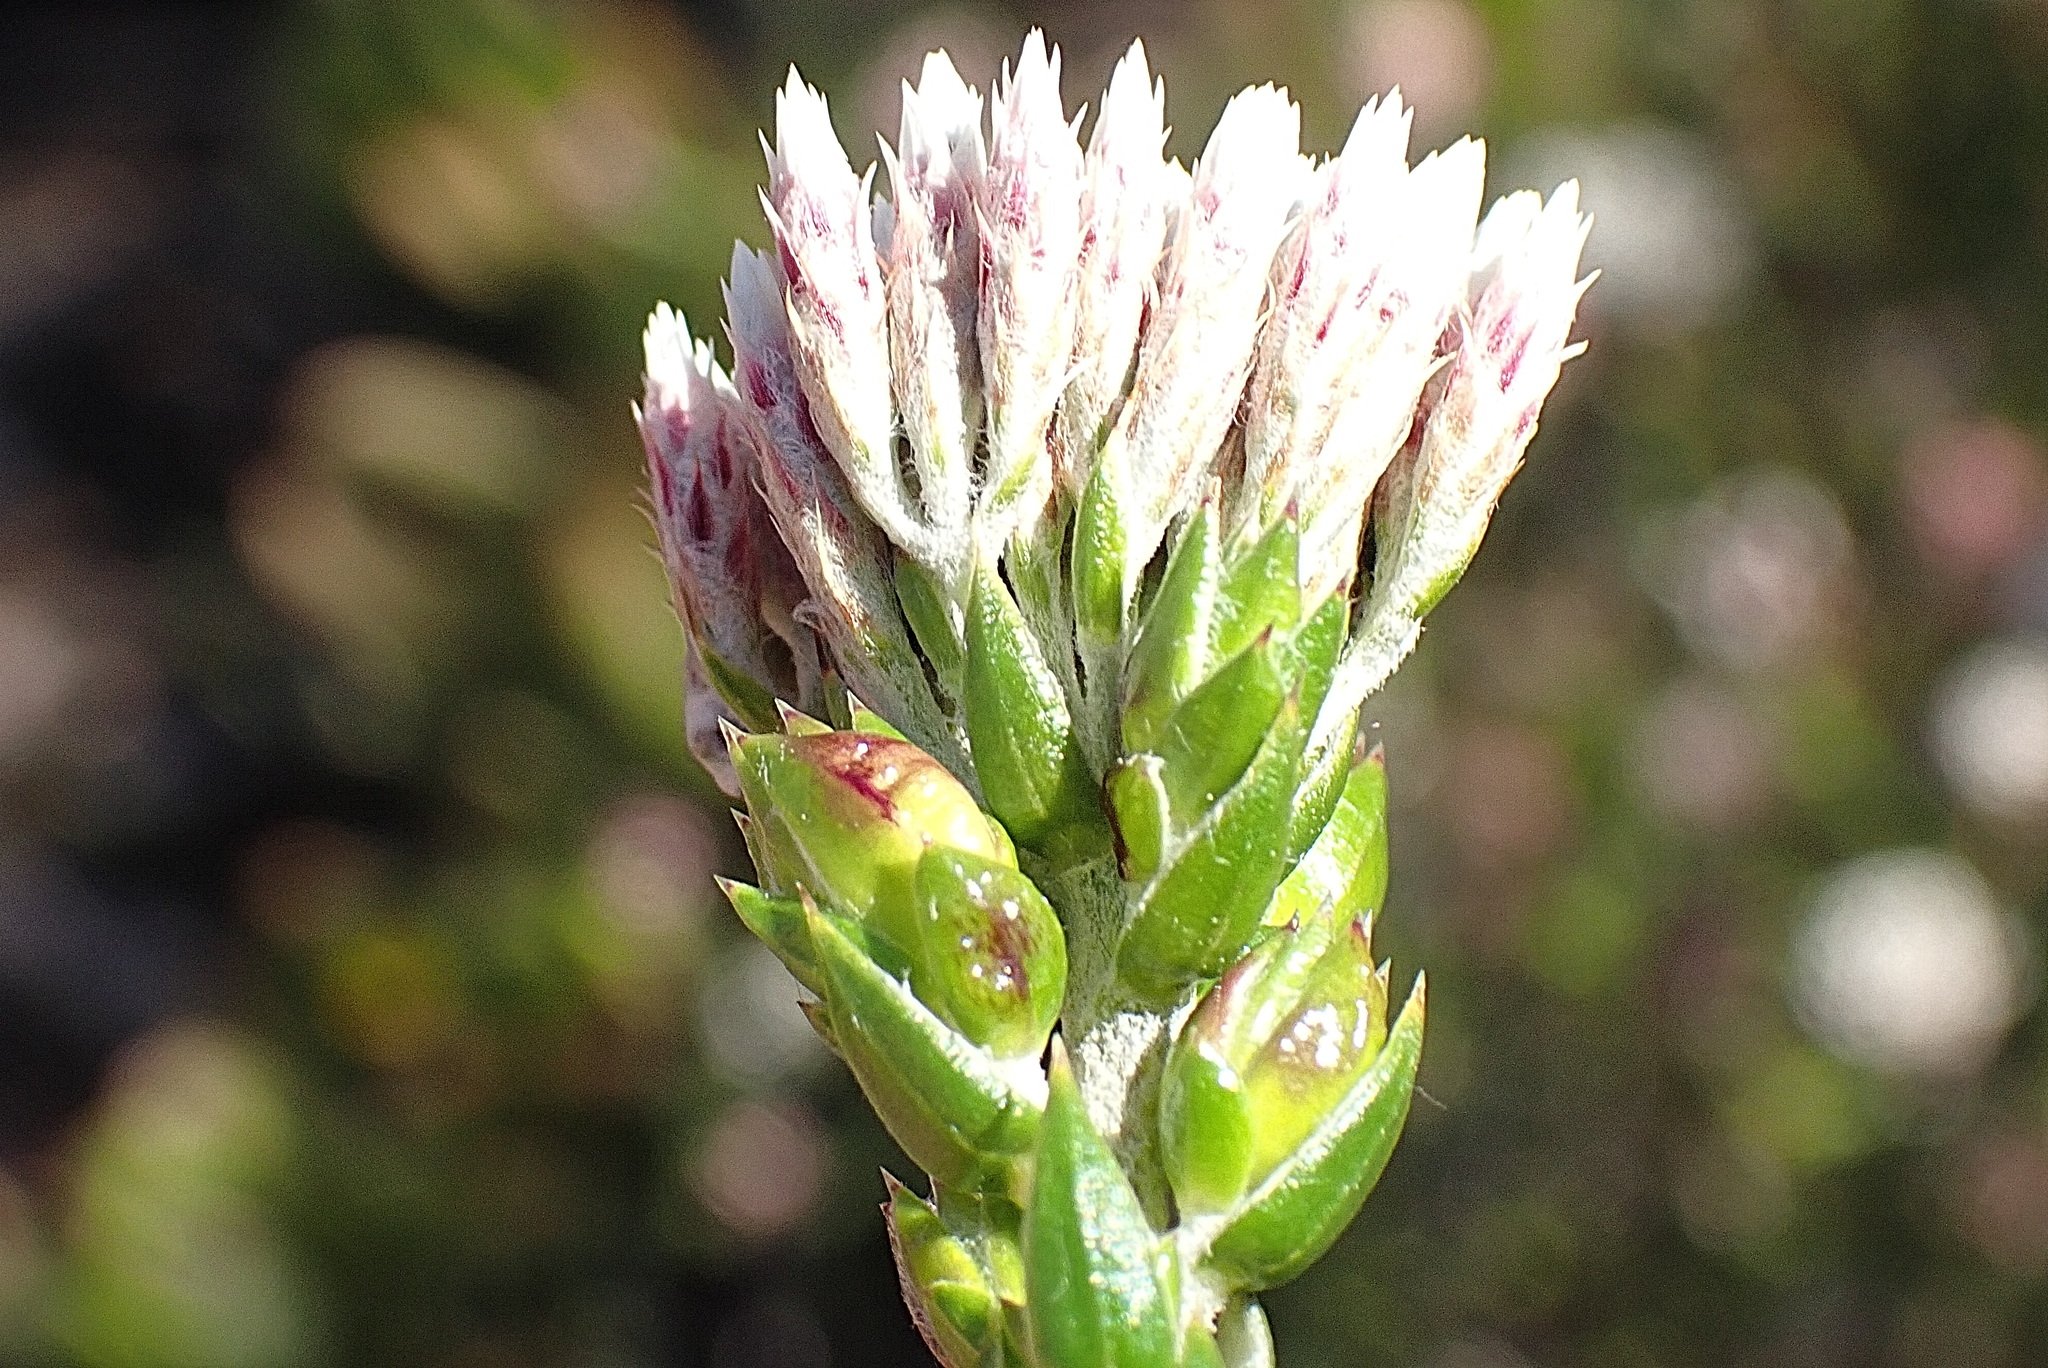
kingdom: Plantae
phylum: Tracheophyta
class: Magnoliopsida
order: Asterales
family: Asteraceae
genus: Metalasia
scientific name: Metalasia pulcherrima
